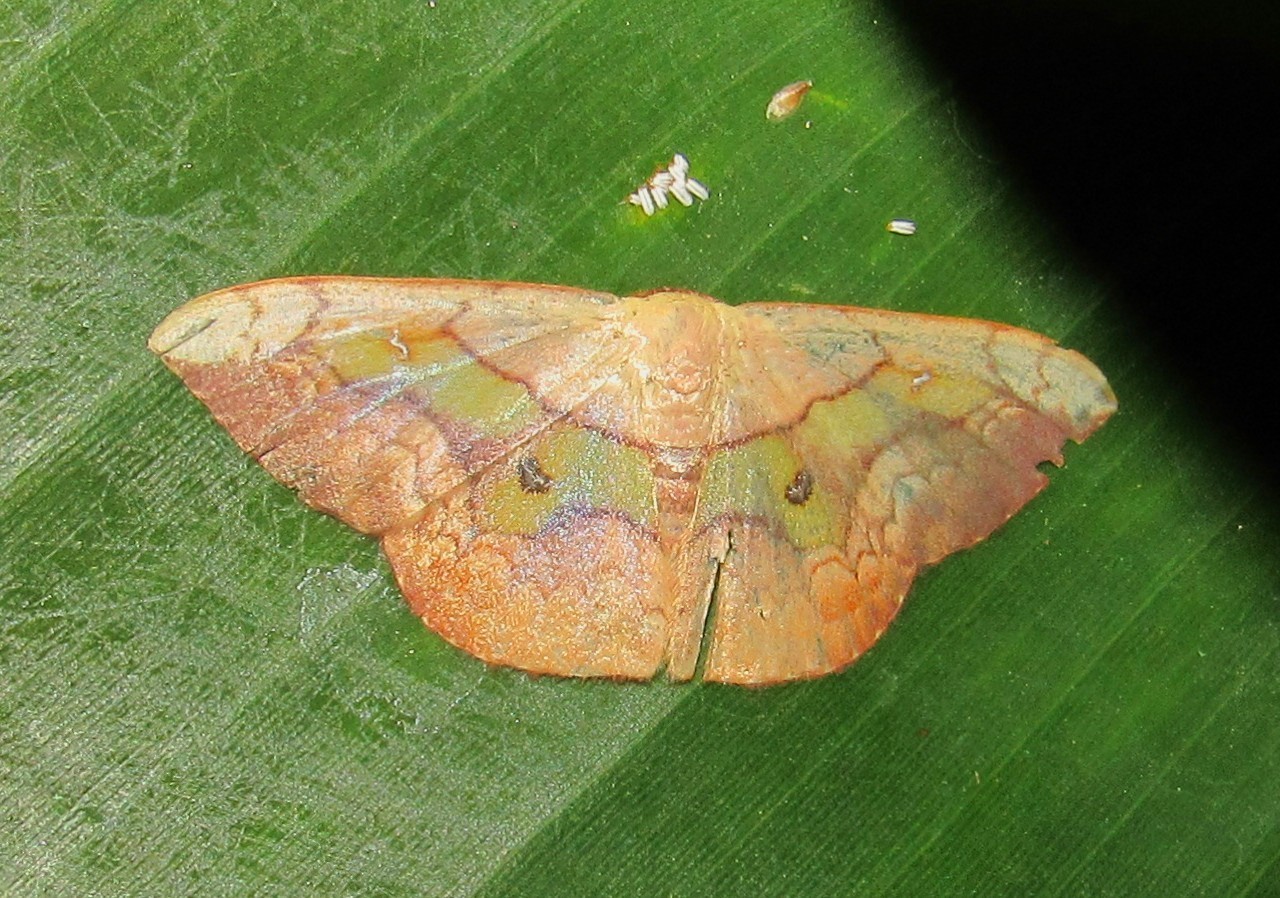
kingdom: Animalia
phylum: Arthropoda
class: Insecta
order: Lepidoptera
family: Geometridae
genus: Semaeopus
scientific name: Semaeopus nisa
